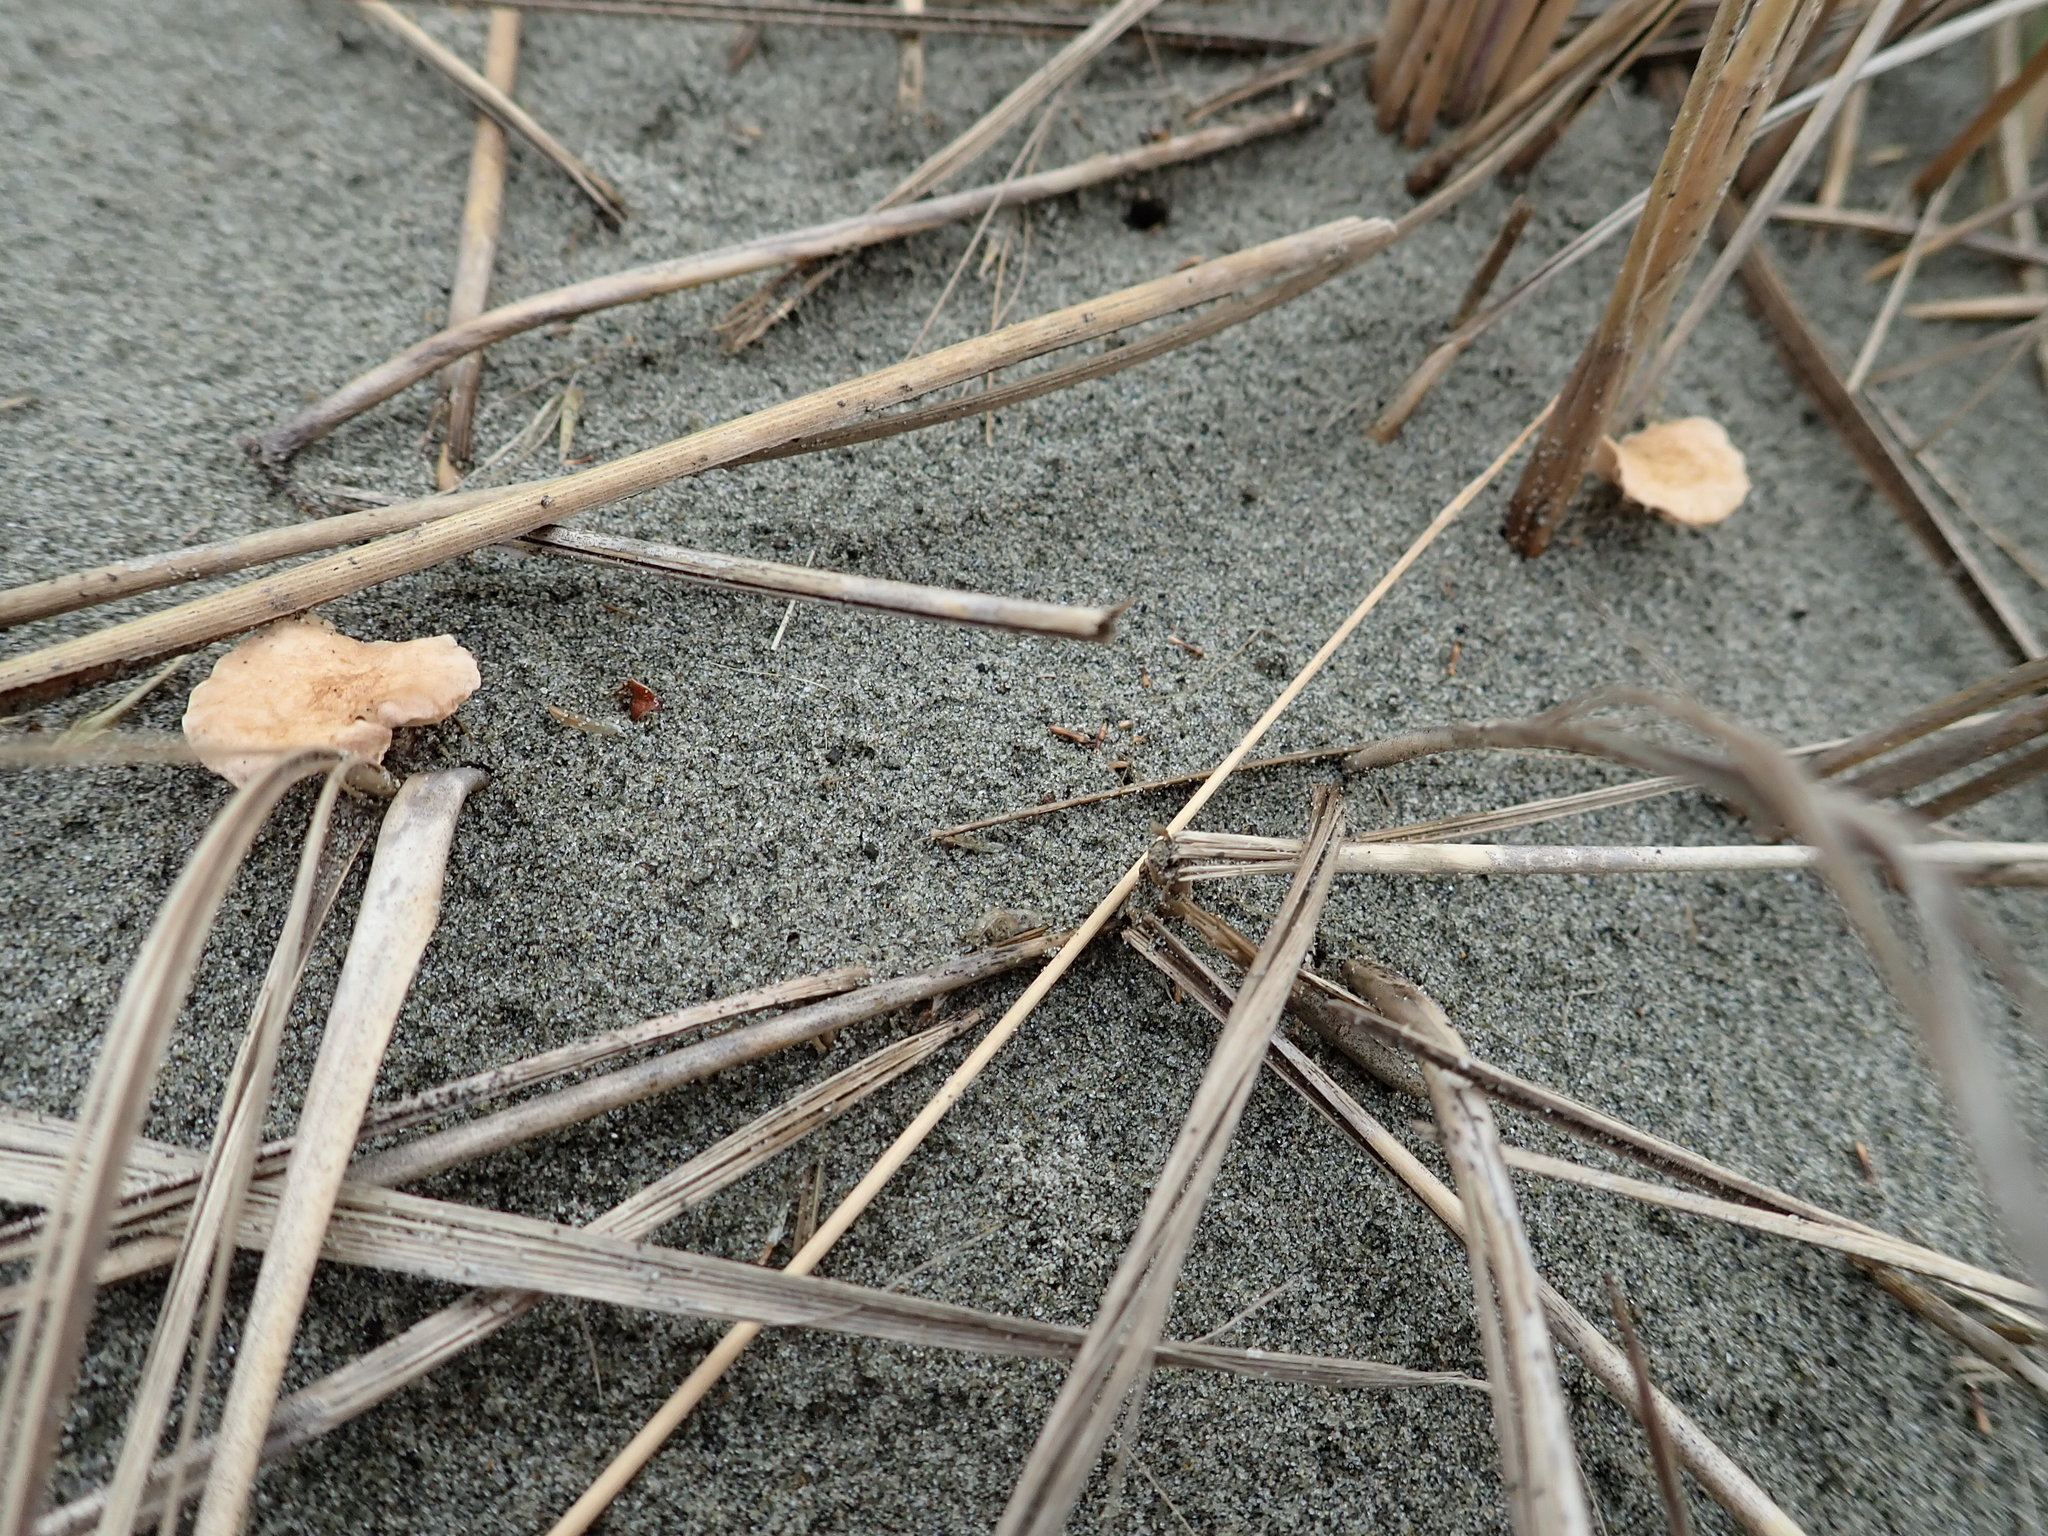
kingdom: Fungi
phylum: Basidiomycota
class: Agaricomycetes
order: Agaricales
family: Marasmiaceae
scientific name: Marasmiaceae
